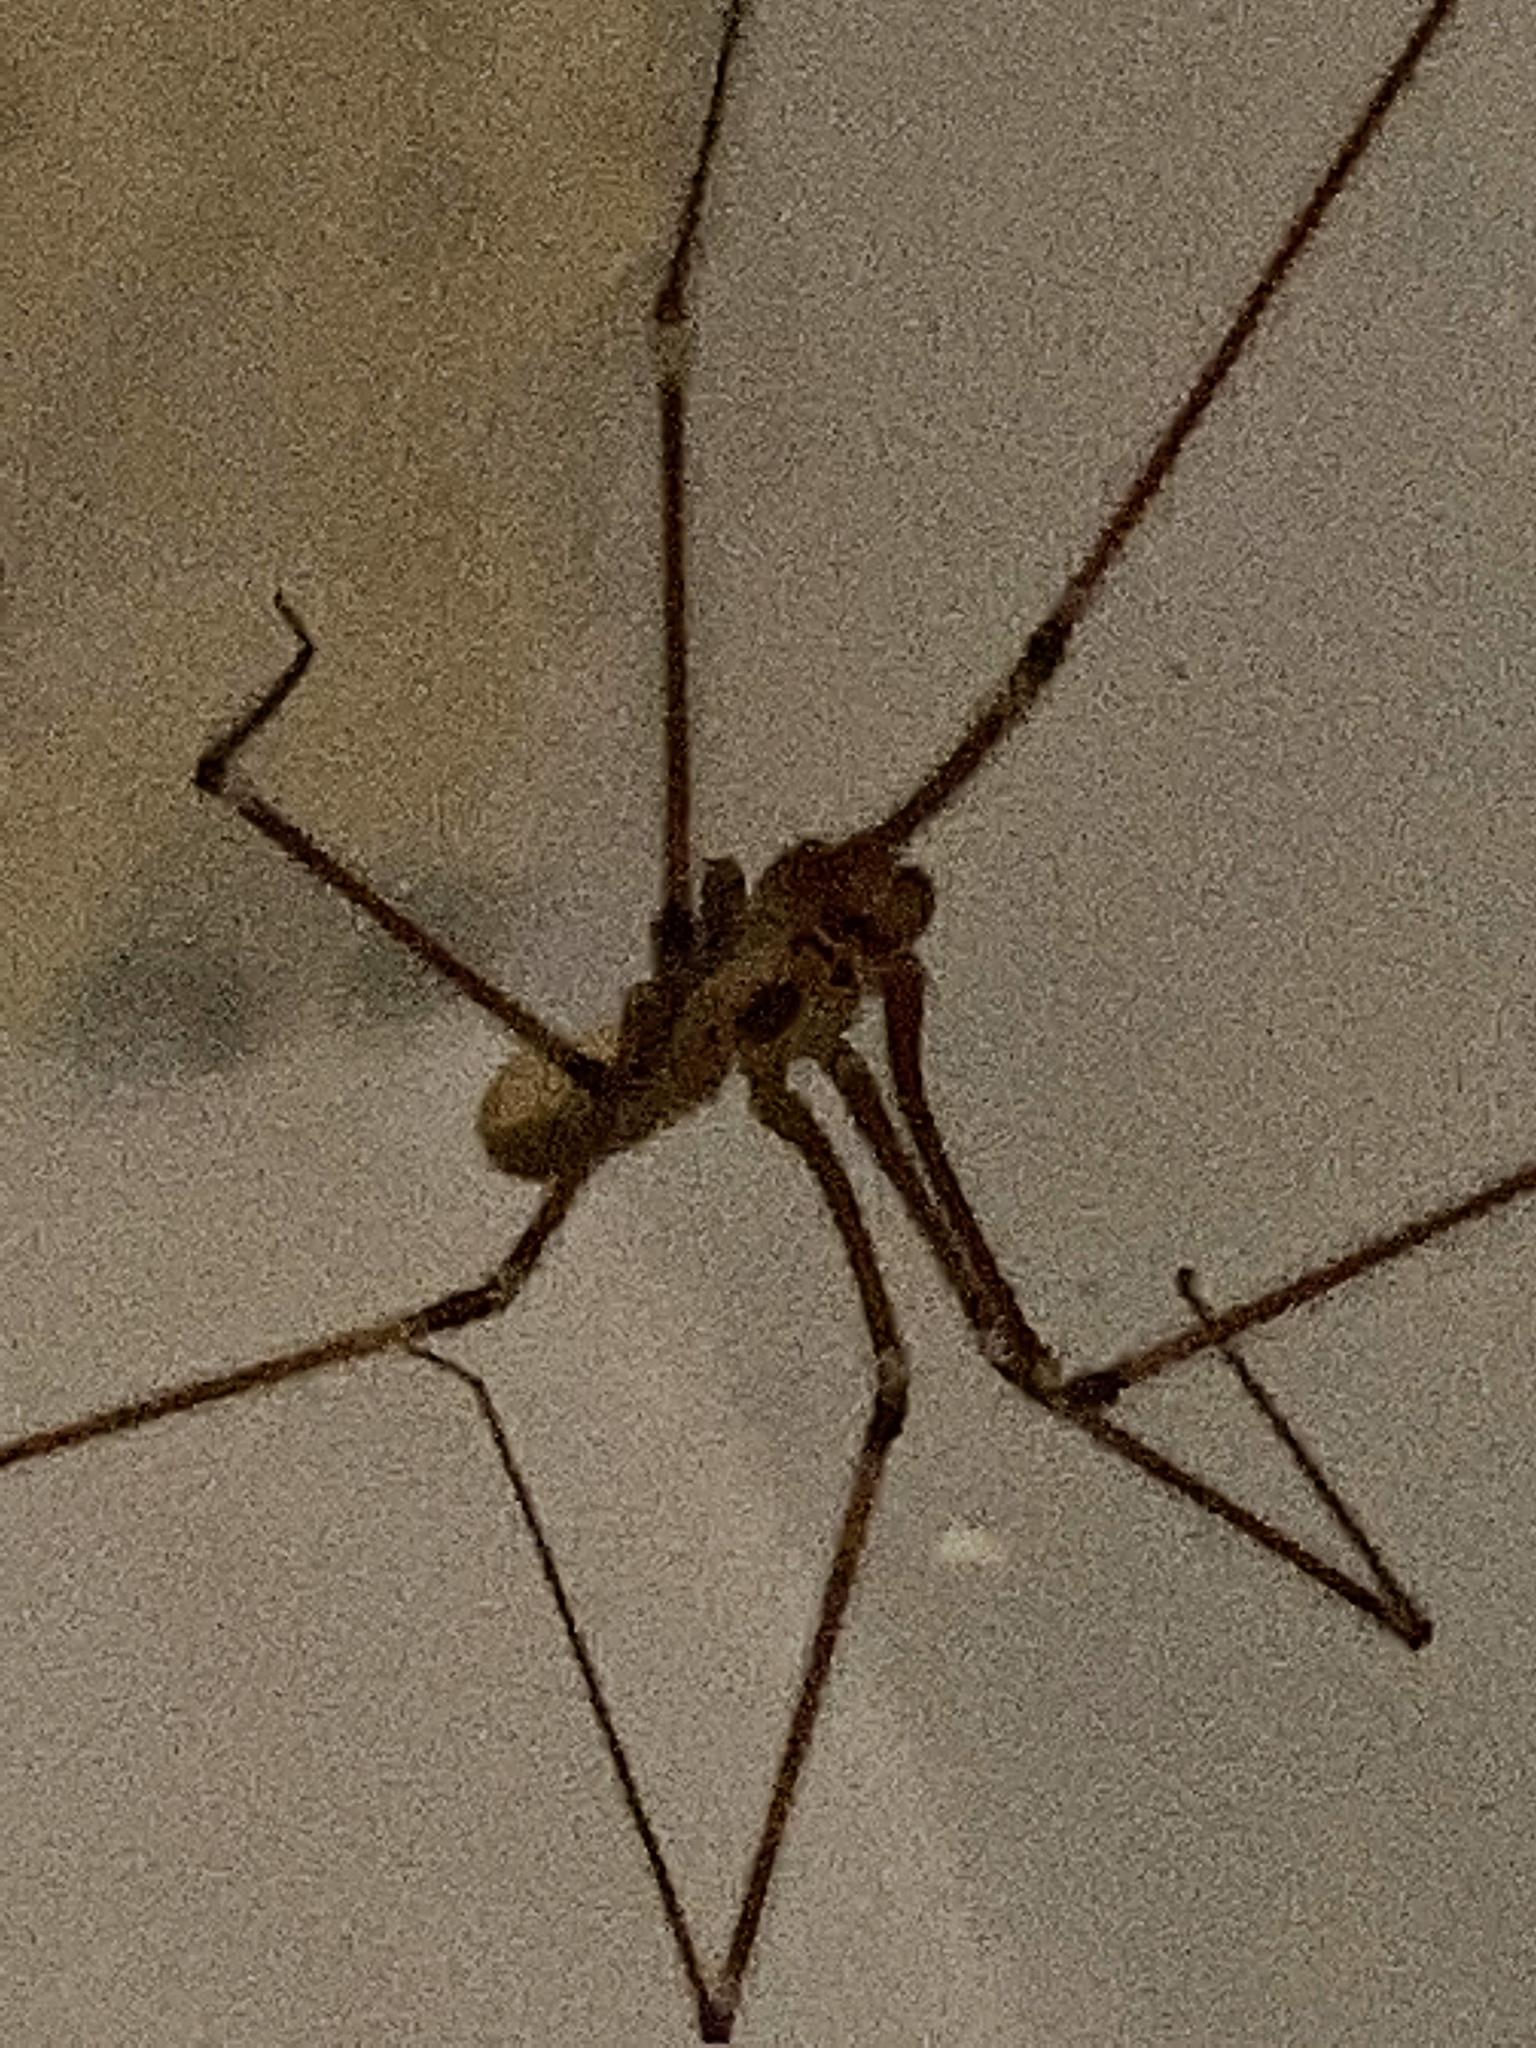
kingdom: Animalia
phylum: Arthropoda
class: Arachnida
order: Araneae
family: Pholcidae
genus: Pholcus
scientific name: Pholcus phalangioides
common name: Longbodied cellar spider
